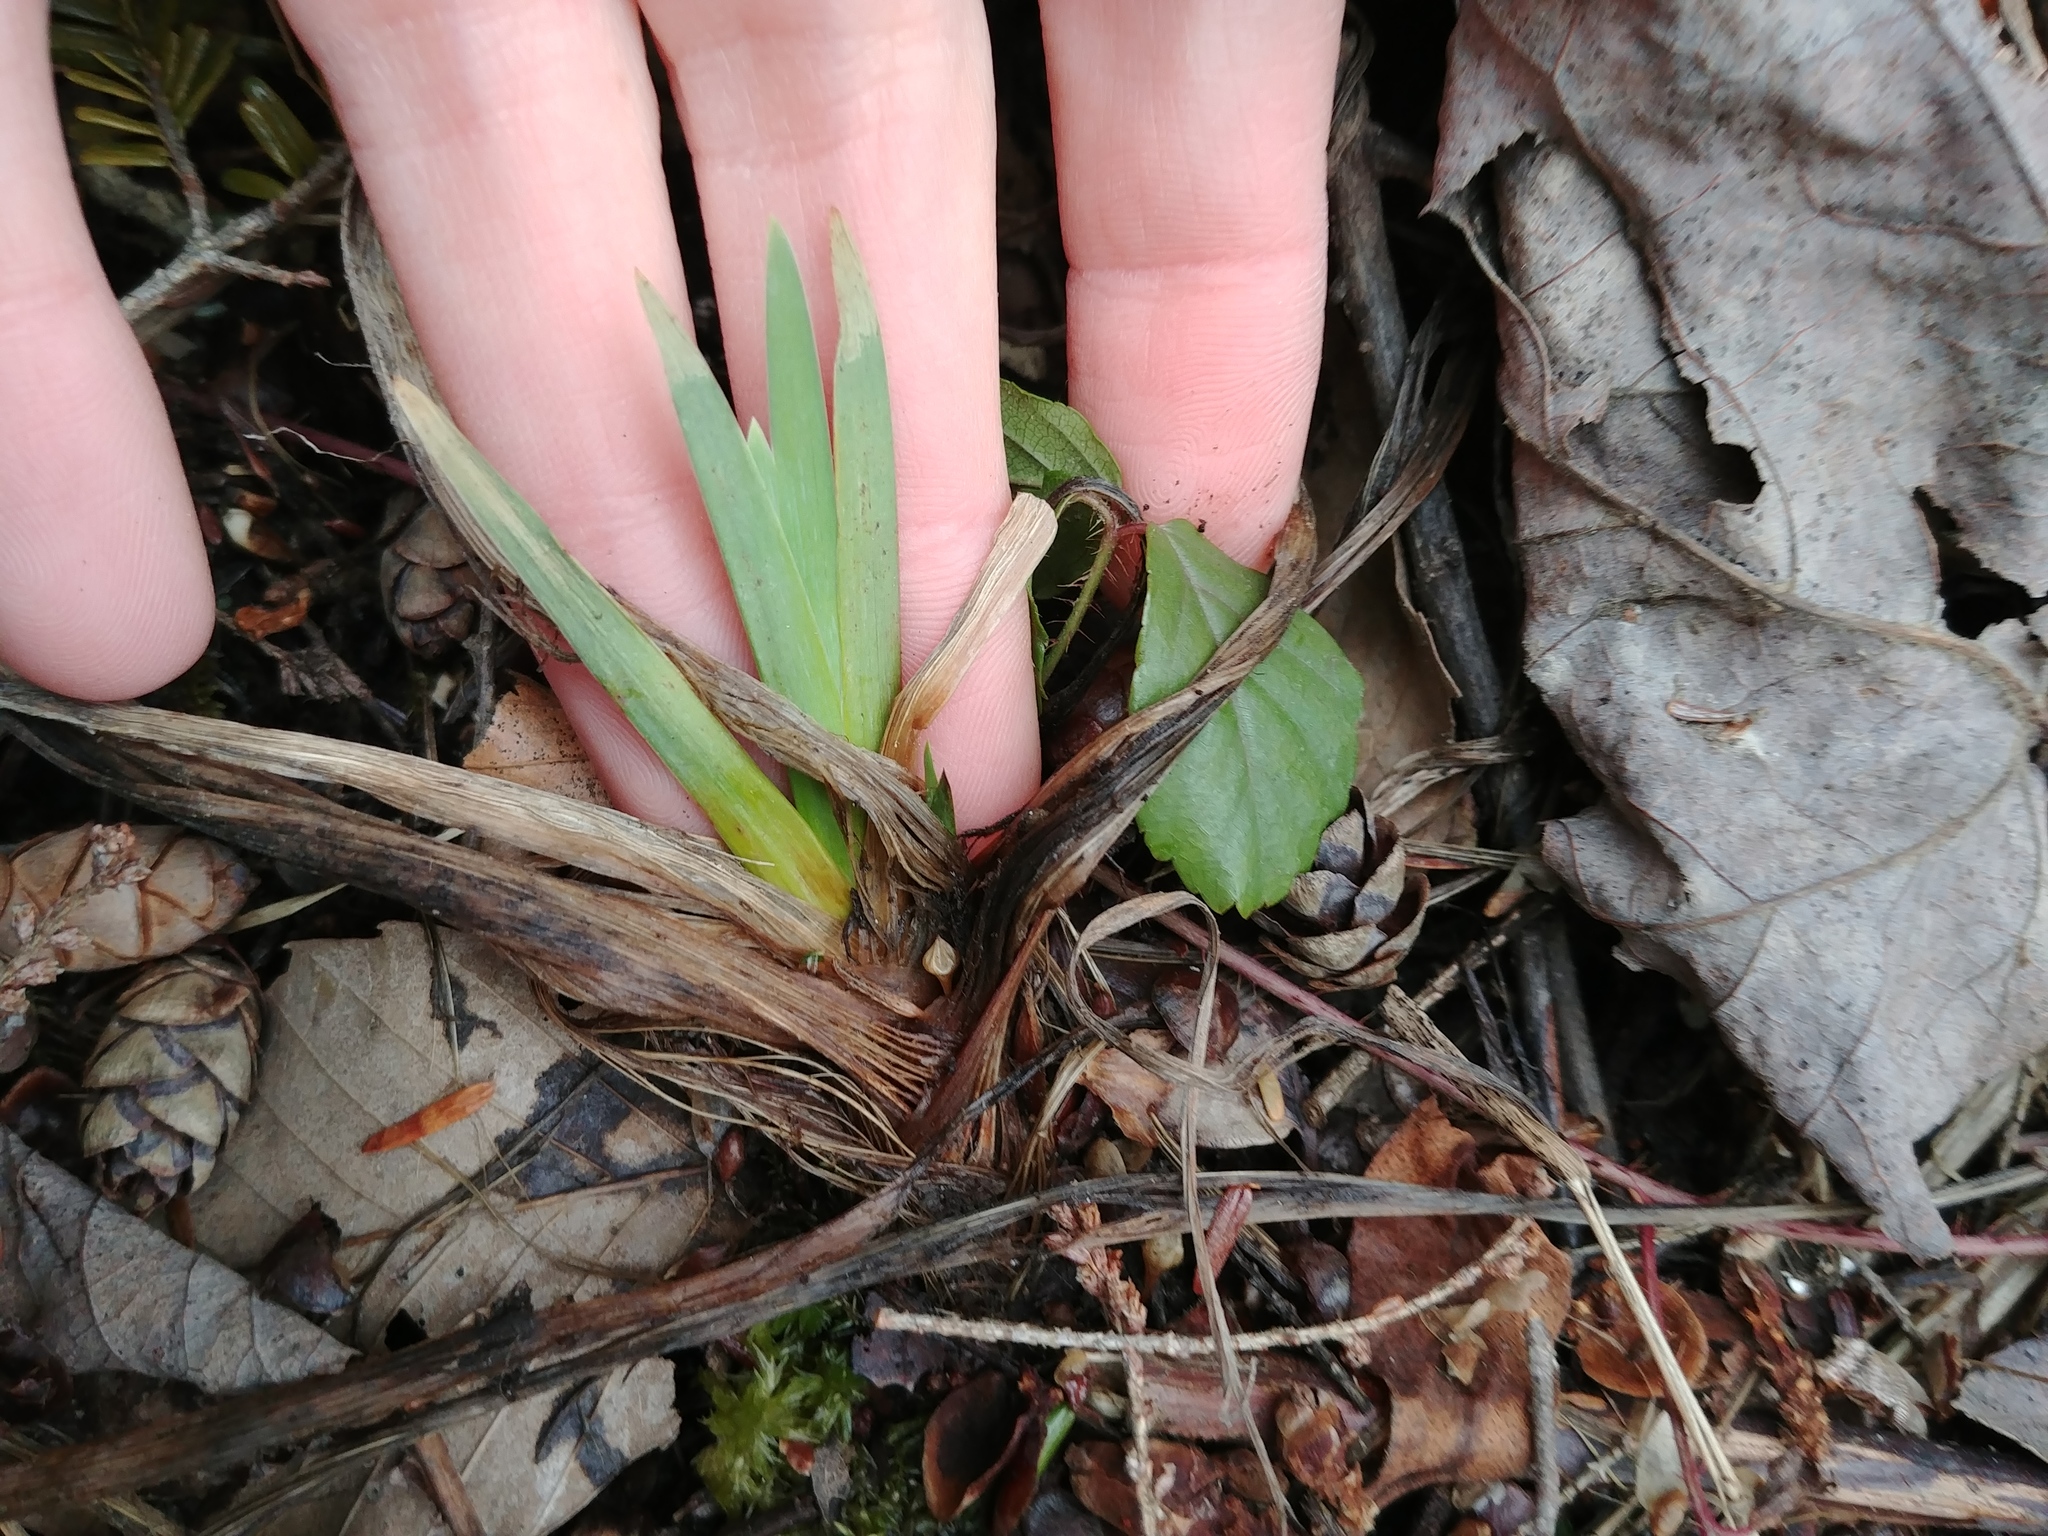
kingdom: Plantae
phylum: Tracheophyta
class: Liliopsida
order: Asparagales
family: Iridaceae
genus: Iris
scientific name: Iris versicolor
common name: Purple iris
